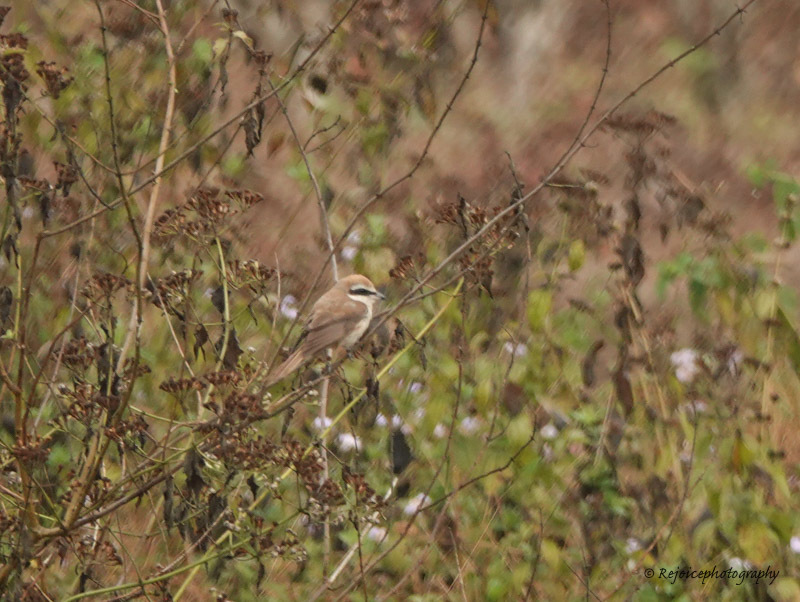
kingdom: Animalia
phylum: Chordata
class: Aves
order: Passeriformes
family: Laniidae
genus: Lanius
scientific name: Lanius cristatus
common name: Brown shrike
